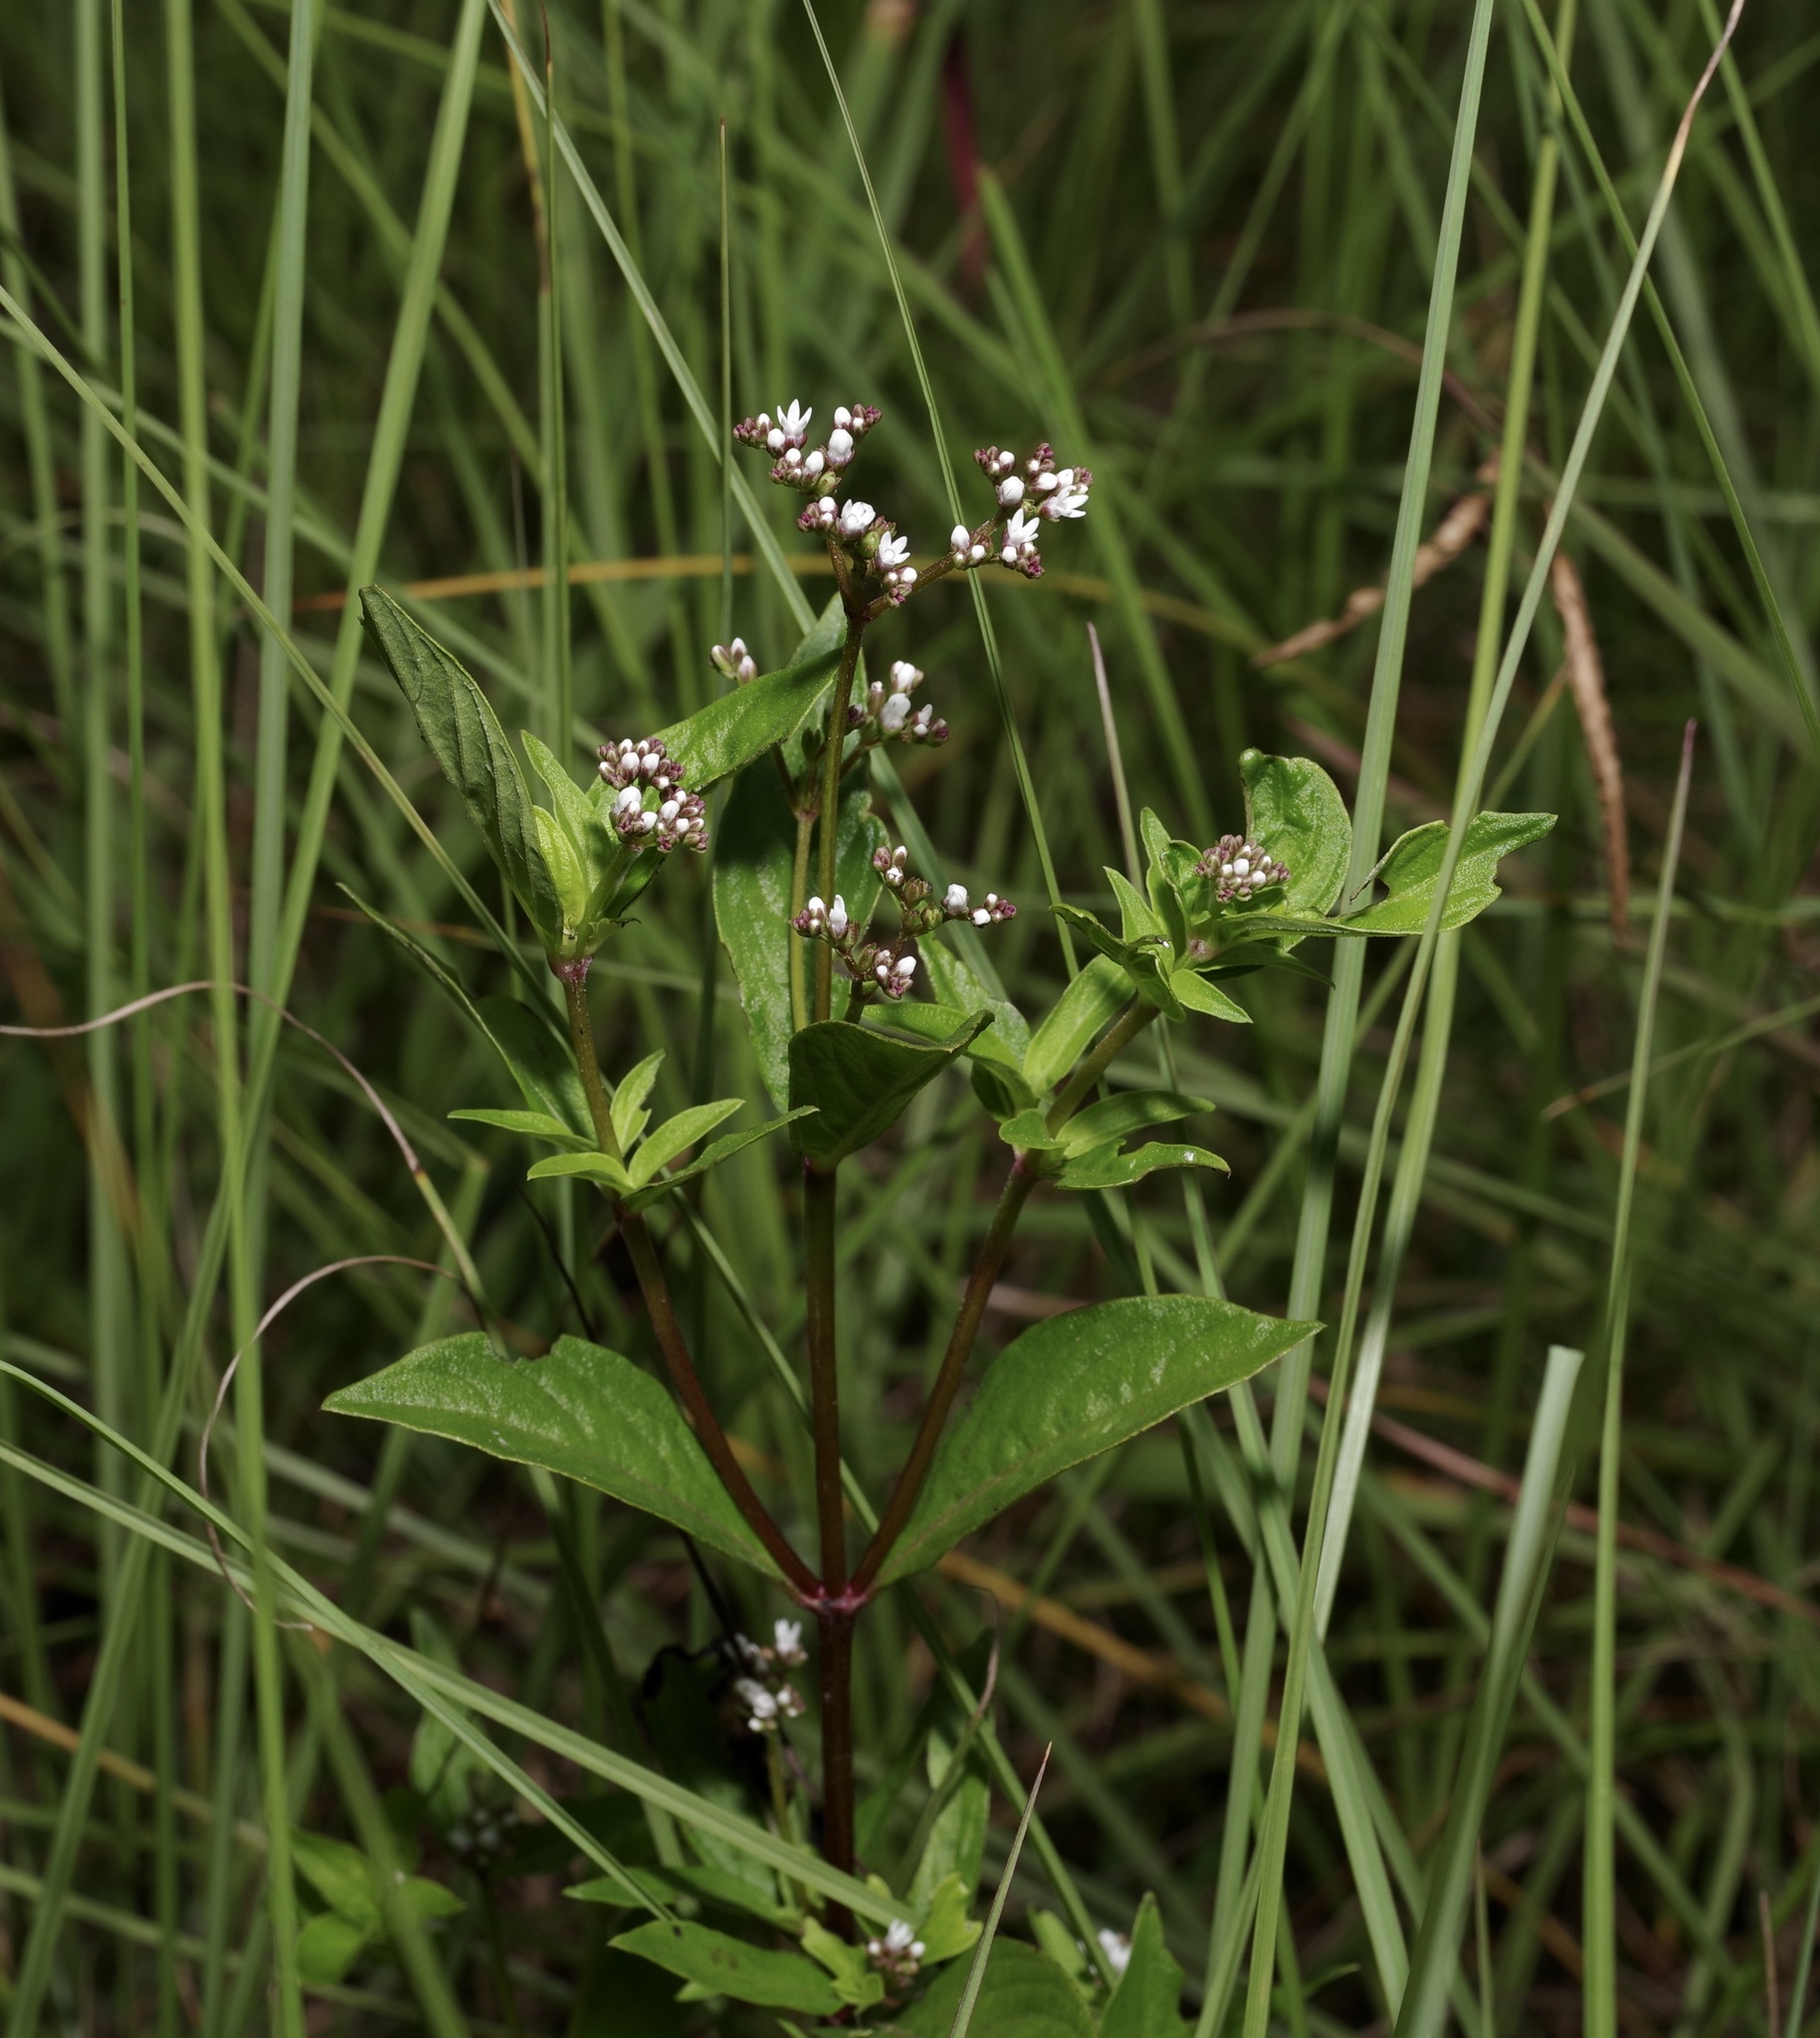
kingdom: Plantae
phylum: Tracheophyta
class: Magnoliopsida
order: Gentianales
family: Loganiaceae
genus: Mitreola
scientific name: Mitreola petiolata
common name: Lax hornpod
